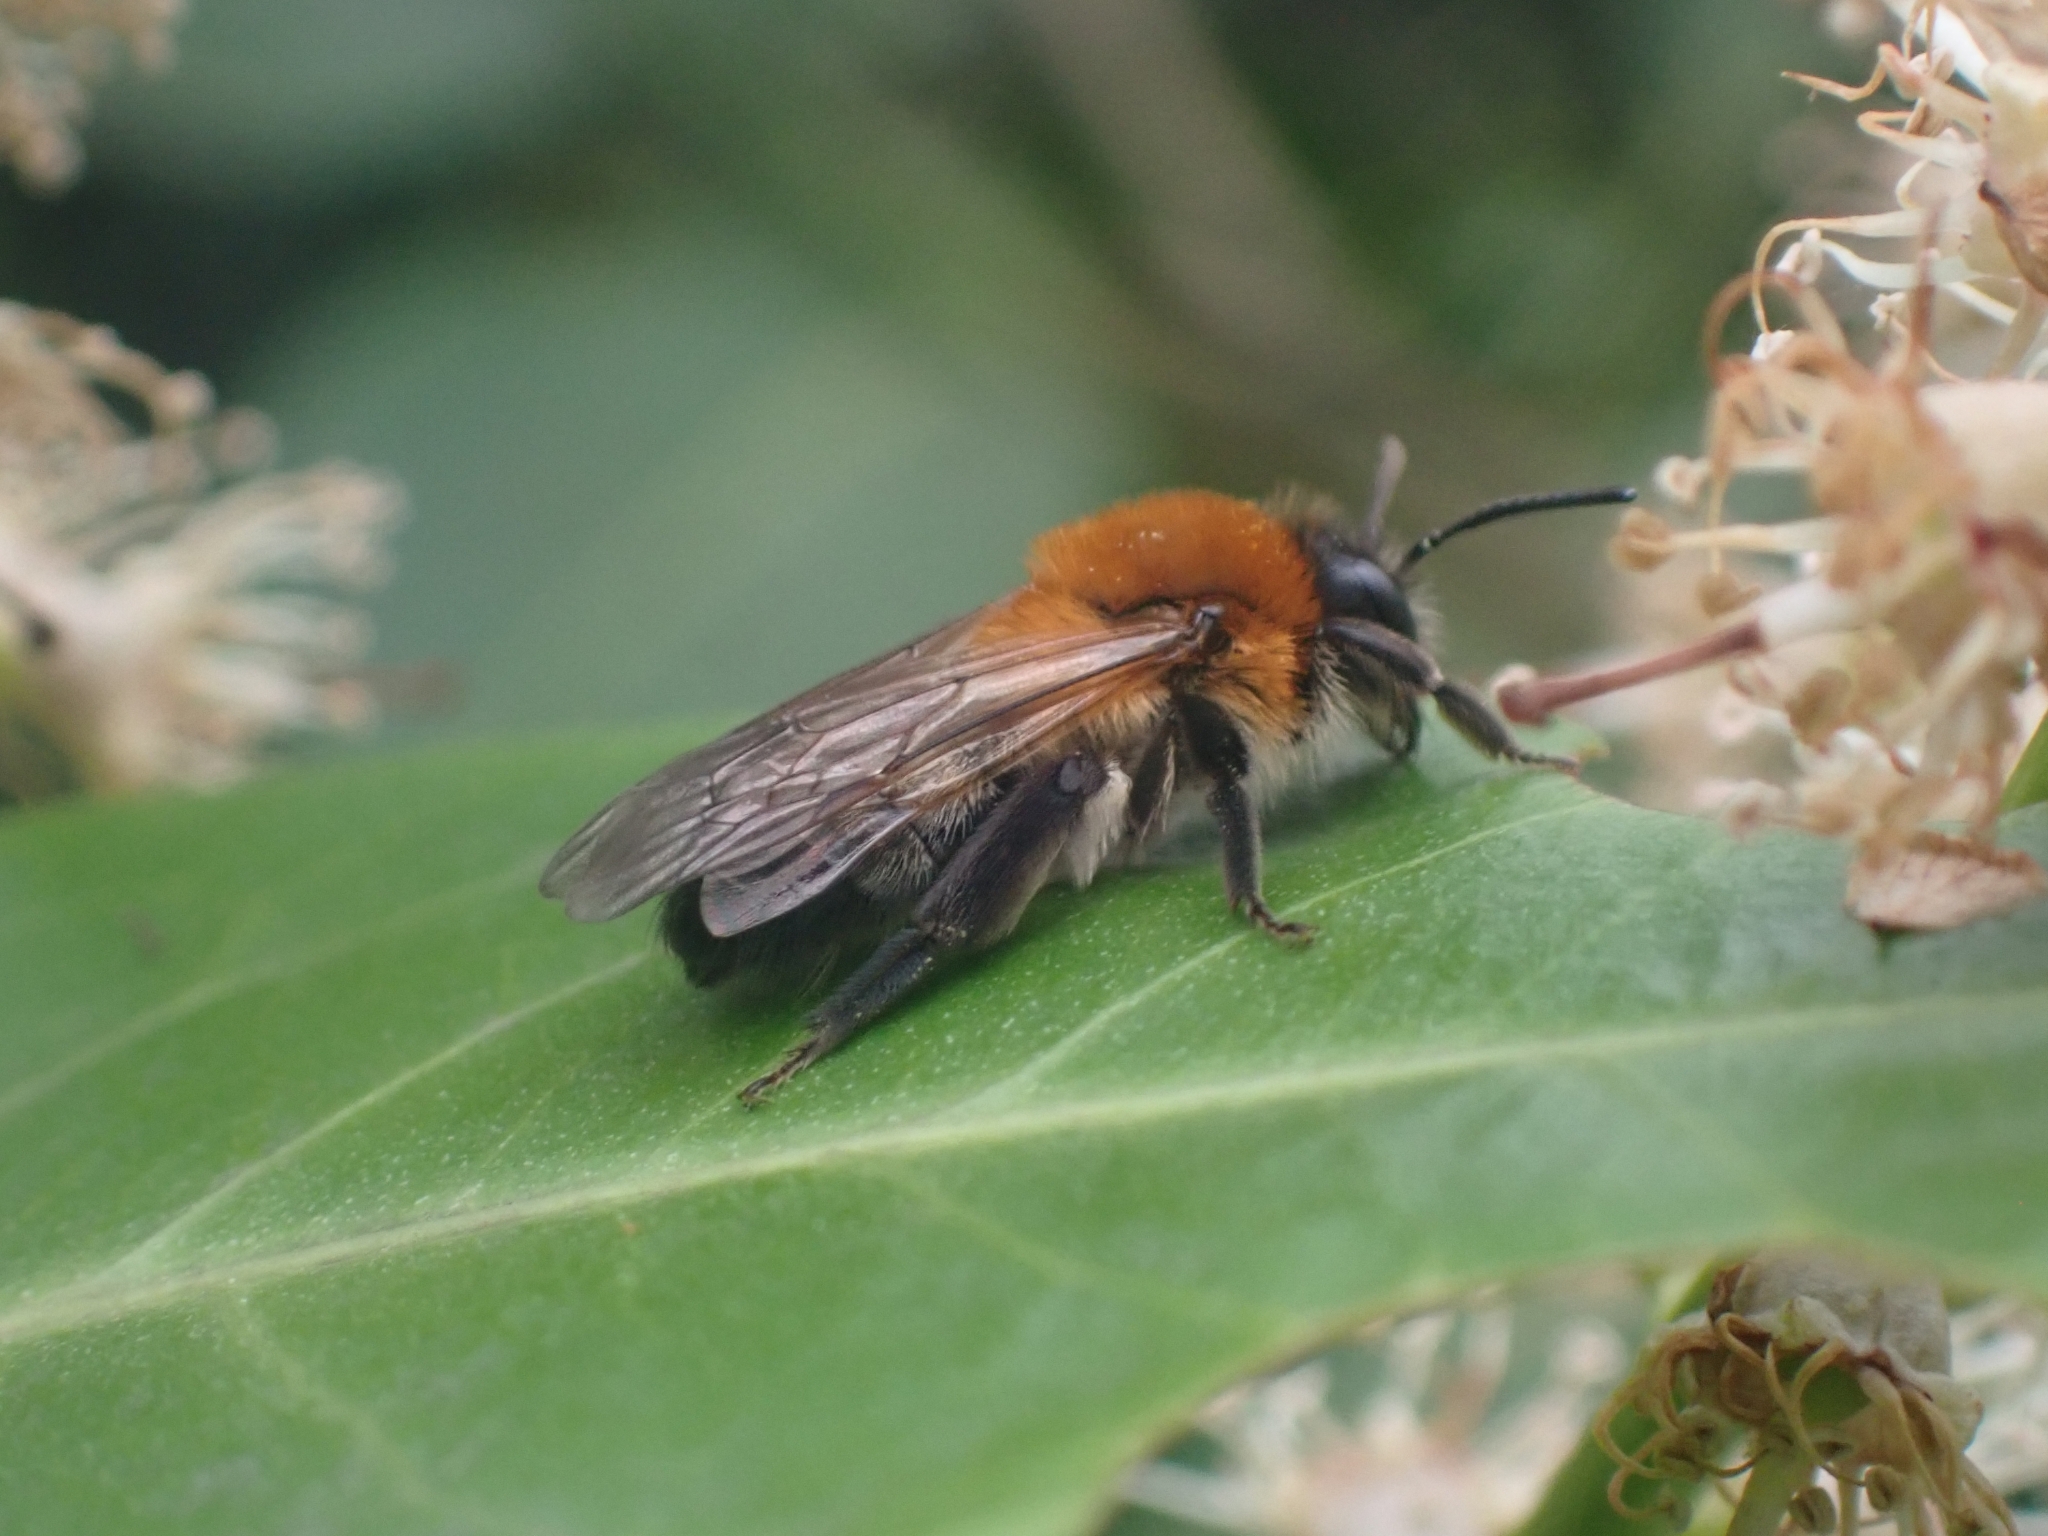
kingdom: Animalia
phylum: Arthropoda
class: Insecta
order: Hymenoptera
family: Andrenidae
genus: Andrena
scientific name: Andrena nitida
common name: Grey-patched mining bee
